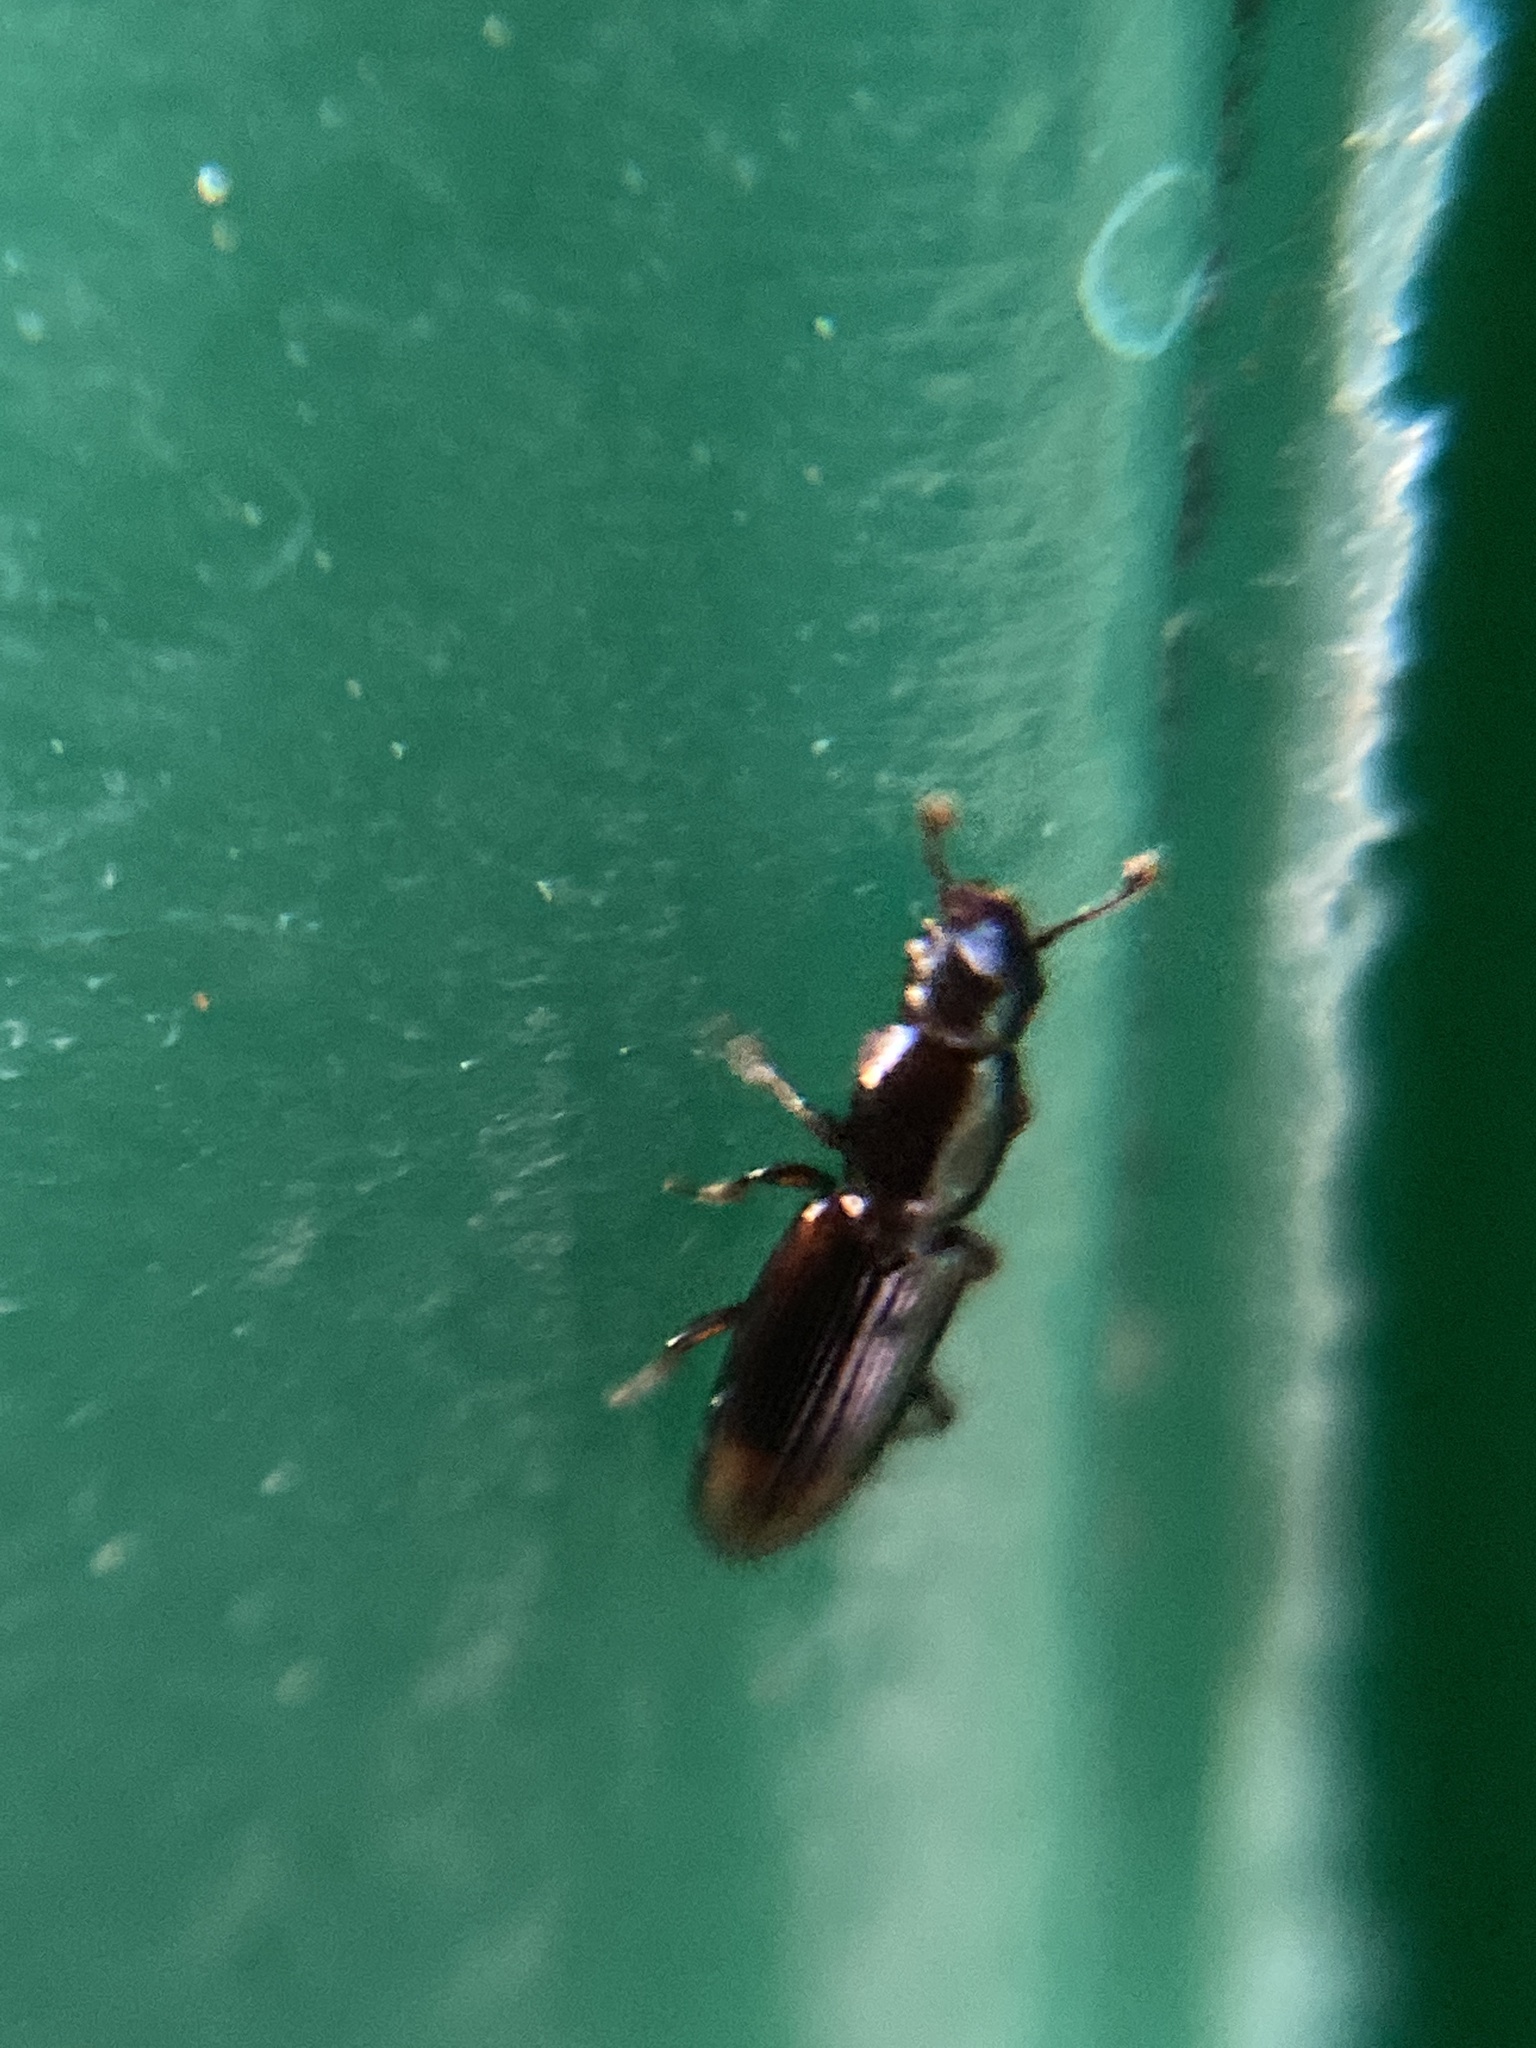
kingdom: Animalia
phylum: Arthropoda
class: Insecta
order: Coleoptera
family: Monotomidae
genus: Rhizophagus
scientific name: Rhizophagus bipustulatus
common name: Root-eating beetle
